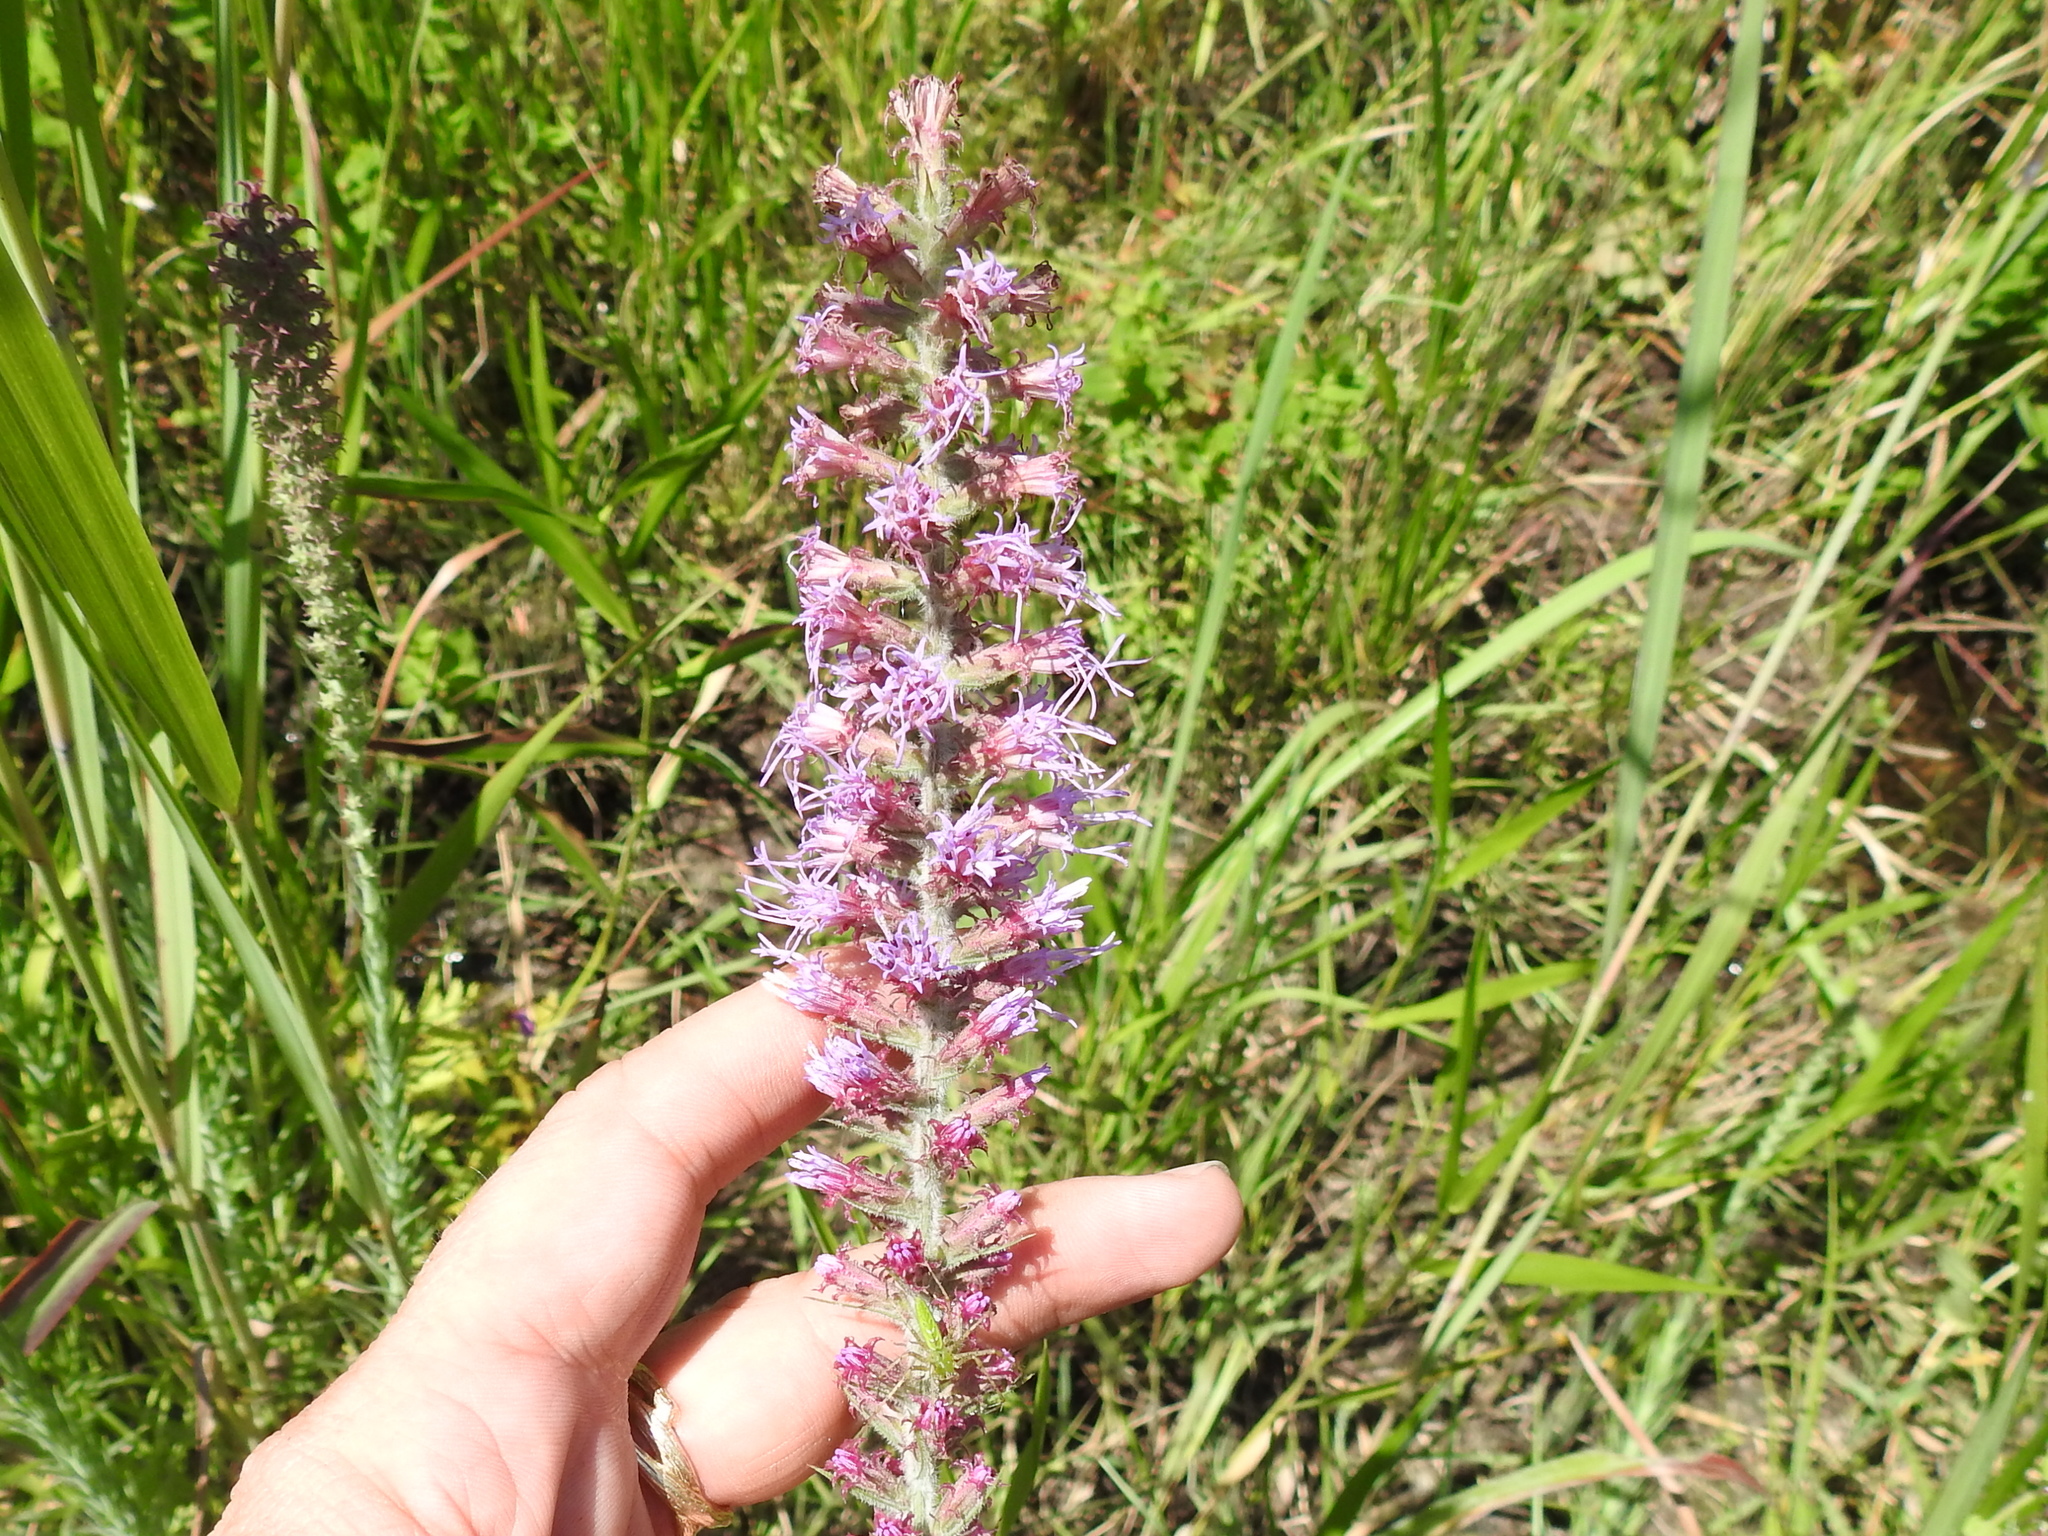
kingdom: Plantae
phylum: Tracheophyta
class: Magnoliopsida
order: Asterales
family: Asteraceae
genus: Liatris
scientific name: Liatris pycnostachya
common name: Cattail gayfeather
